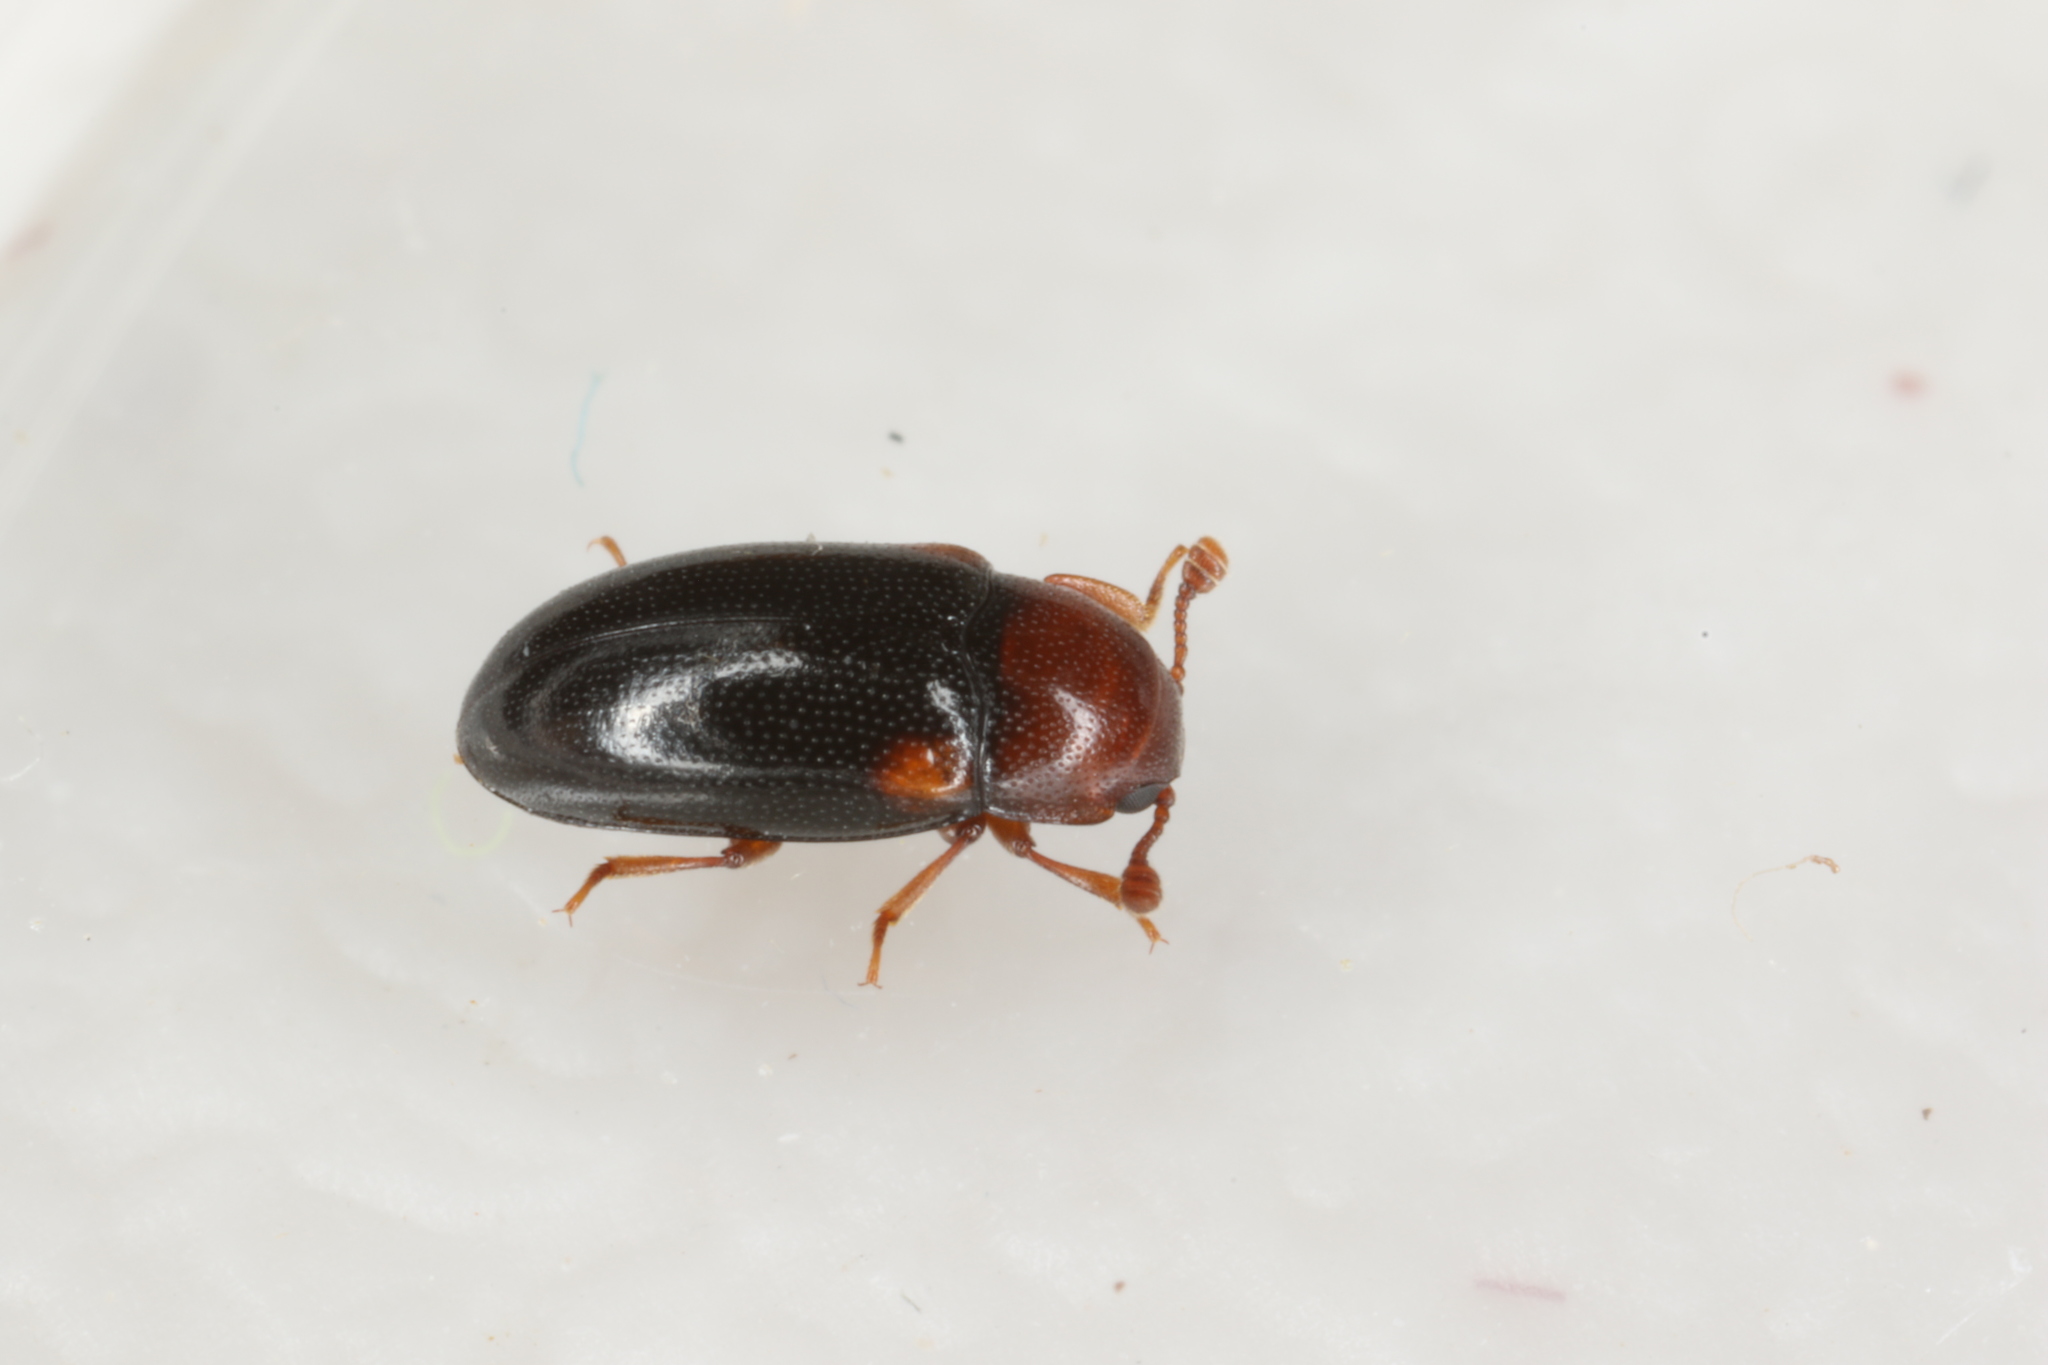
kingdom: Animalia
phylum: Arthropoda
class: Insecta
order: Coleoptera
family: Erotylidae
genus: Dacne
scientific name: Dacne bipustulata
